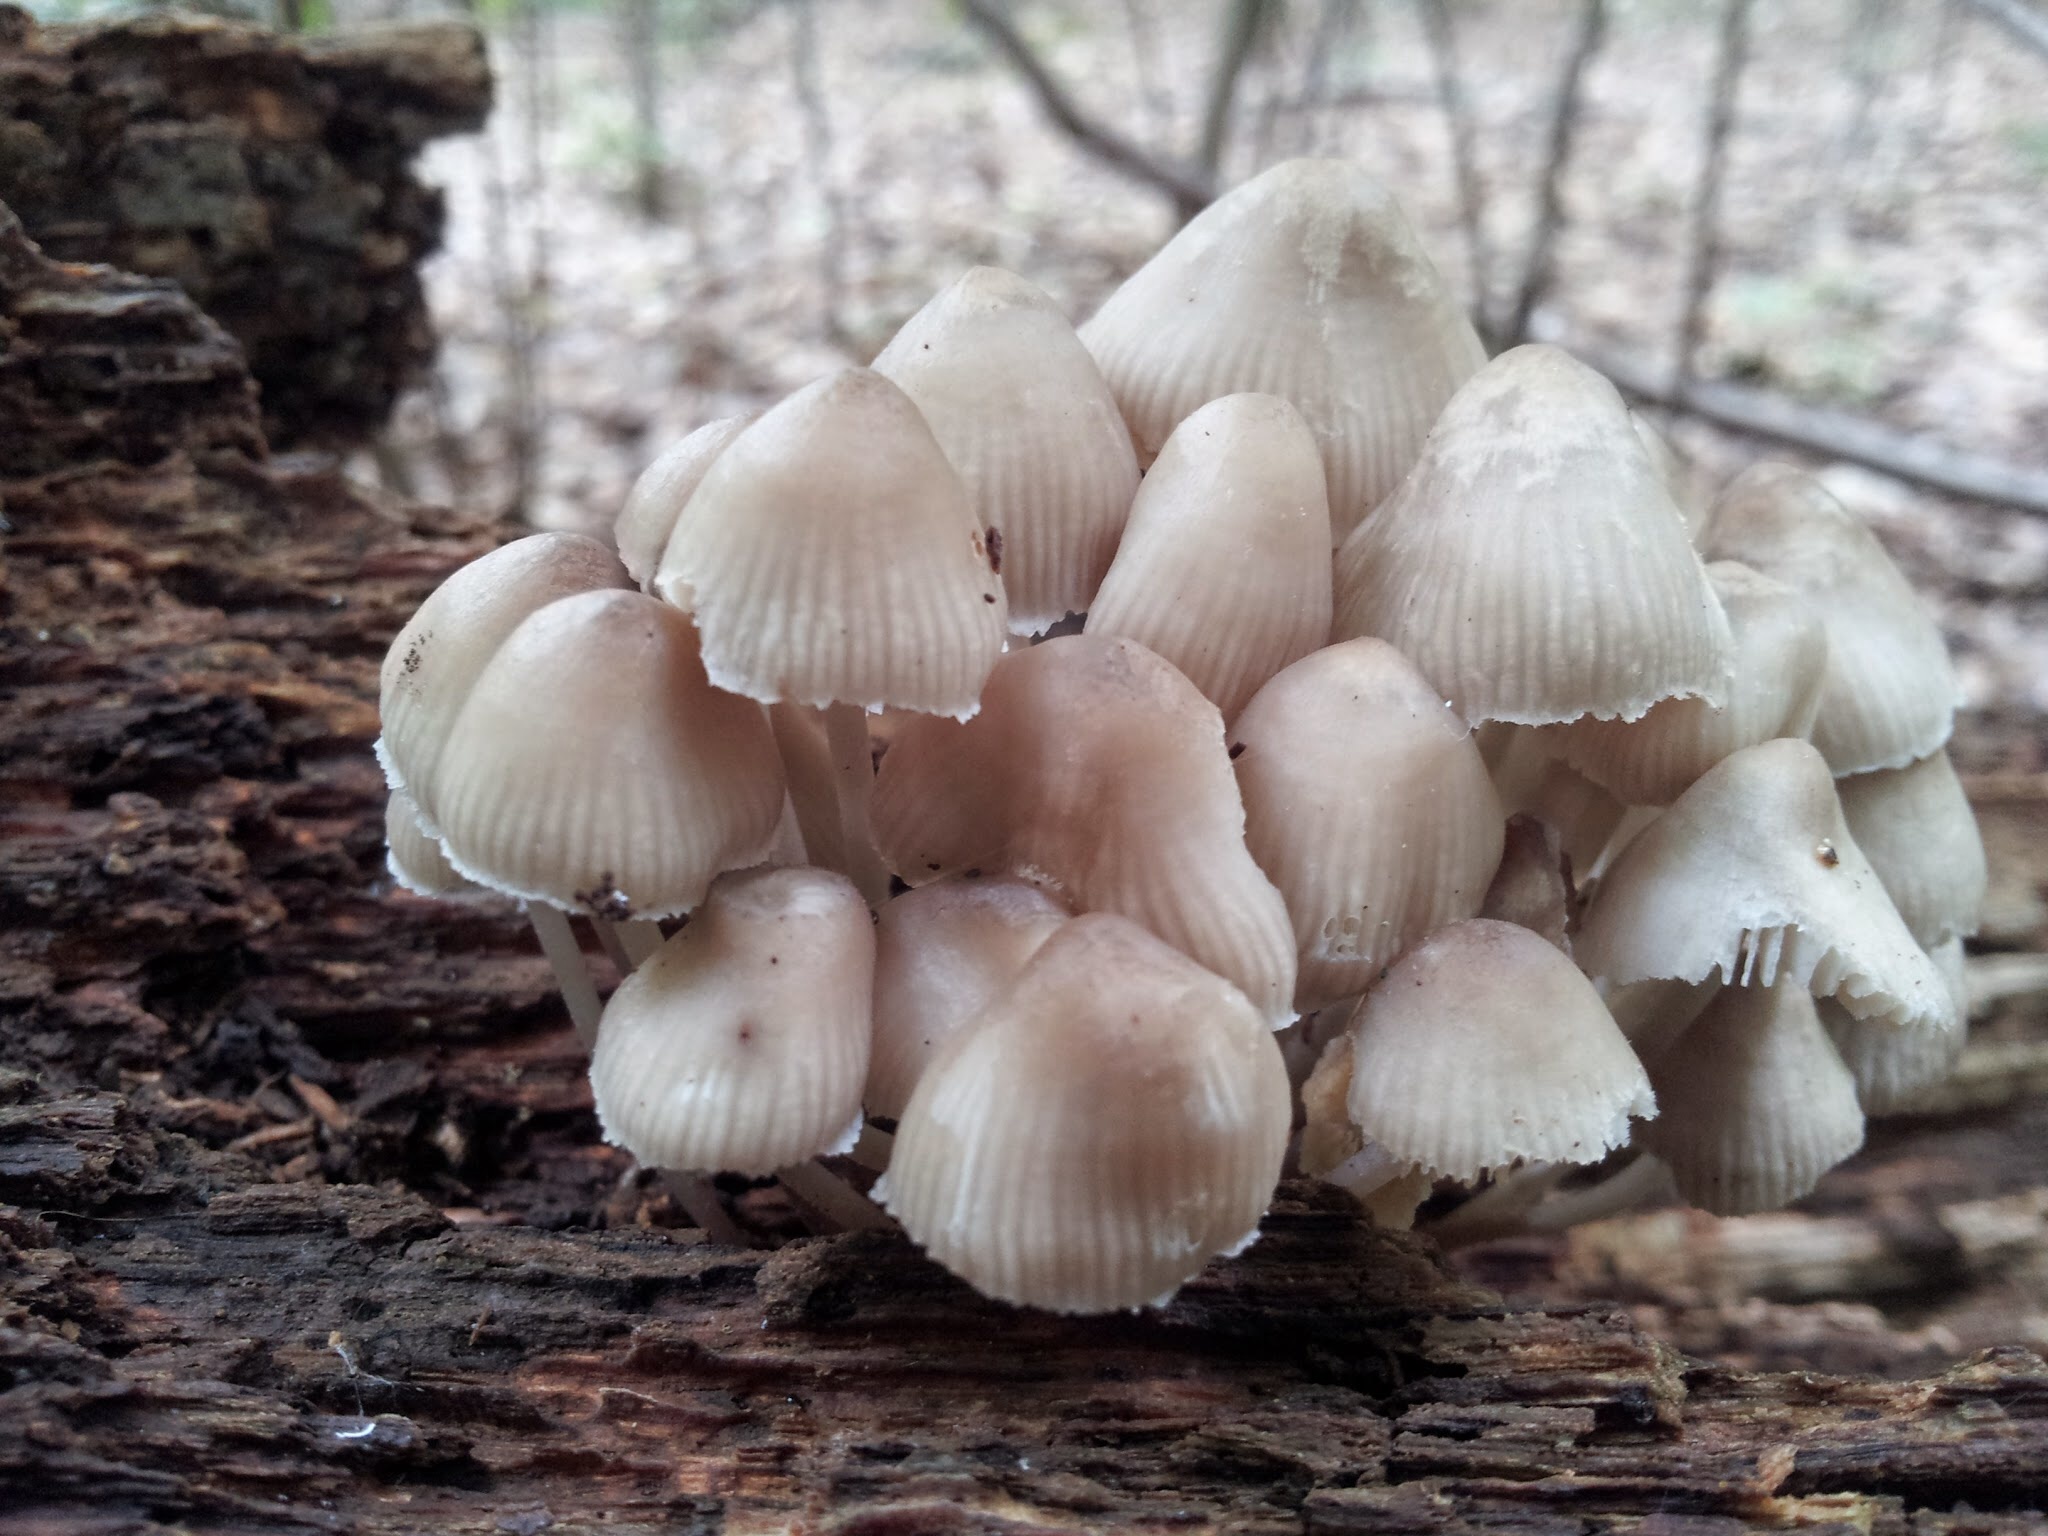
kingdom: Fungi
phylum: Basidiomycota
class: Agaricomycetes
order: Agaricales
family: Mycenaceae
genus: Mycena
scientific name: Mycena inclinata
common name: Clustered bonnet
